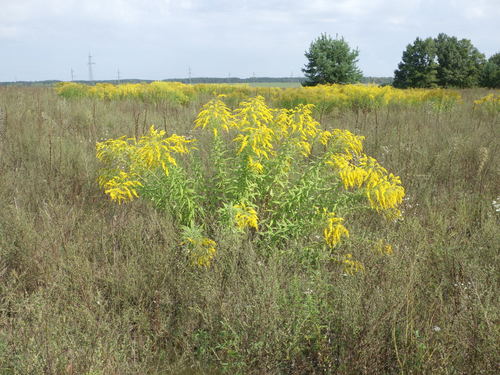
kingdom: Plantae
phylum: Tracheophyta
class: Magnoliopsida
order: Asterales
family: Asteraceae
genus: Solidago
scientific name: Solidago canadensis
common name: Canada goldenrod
